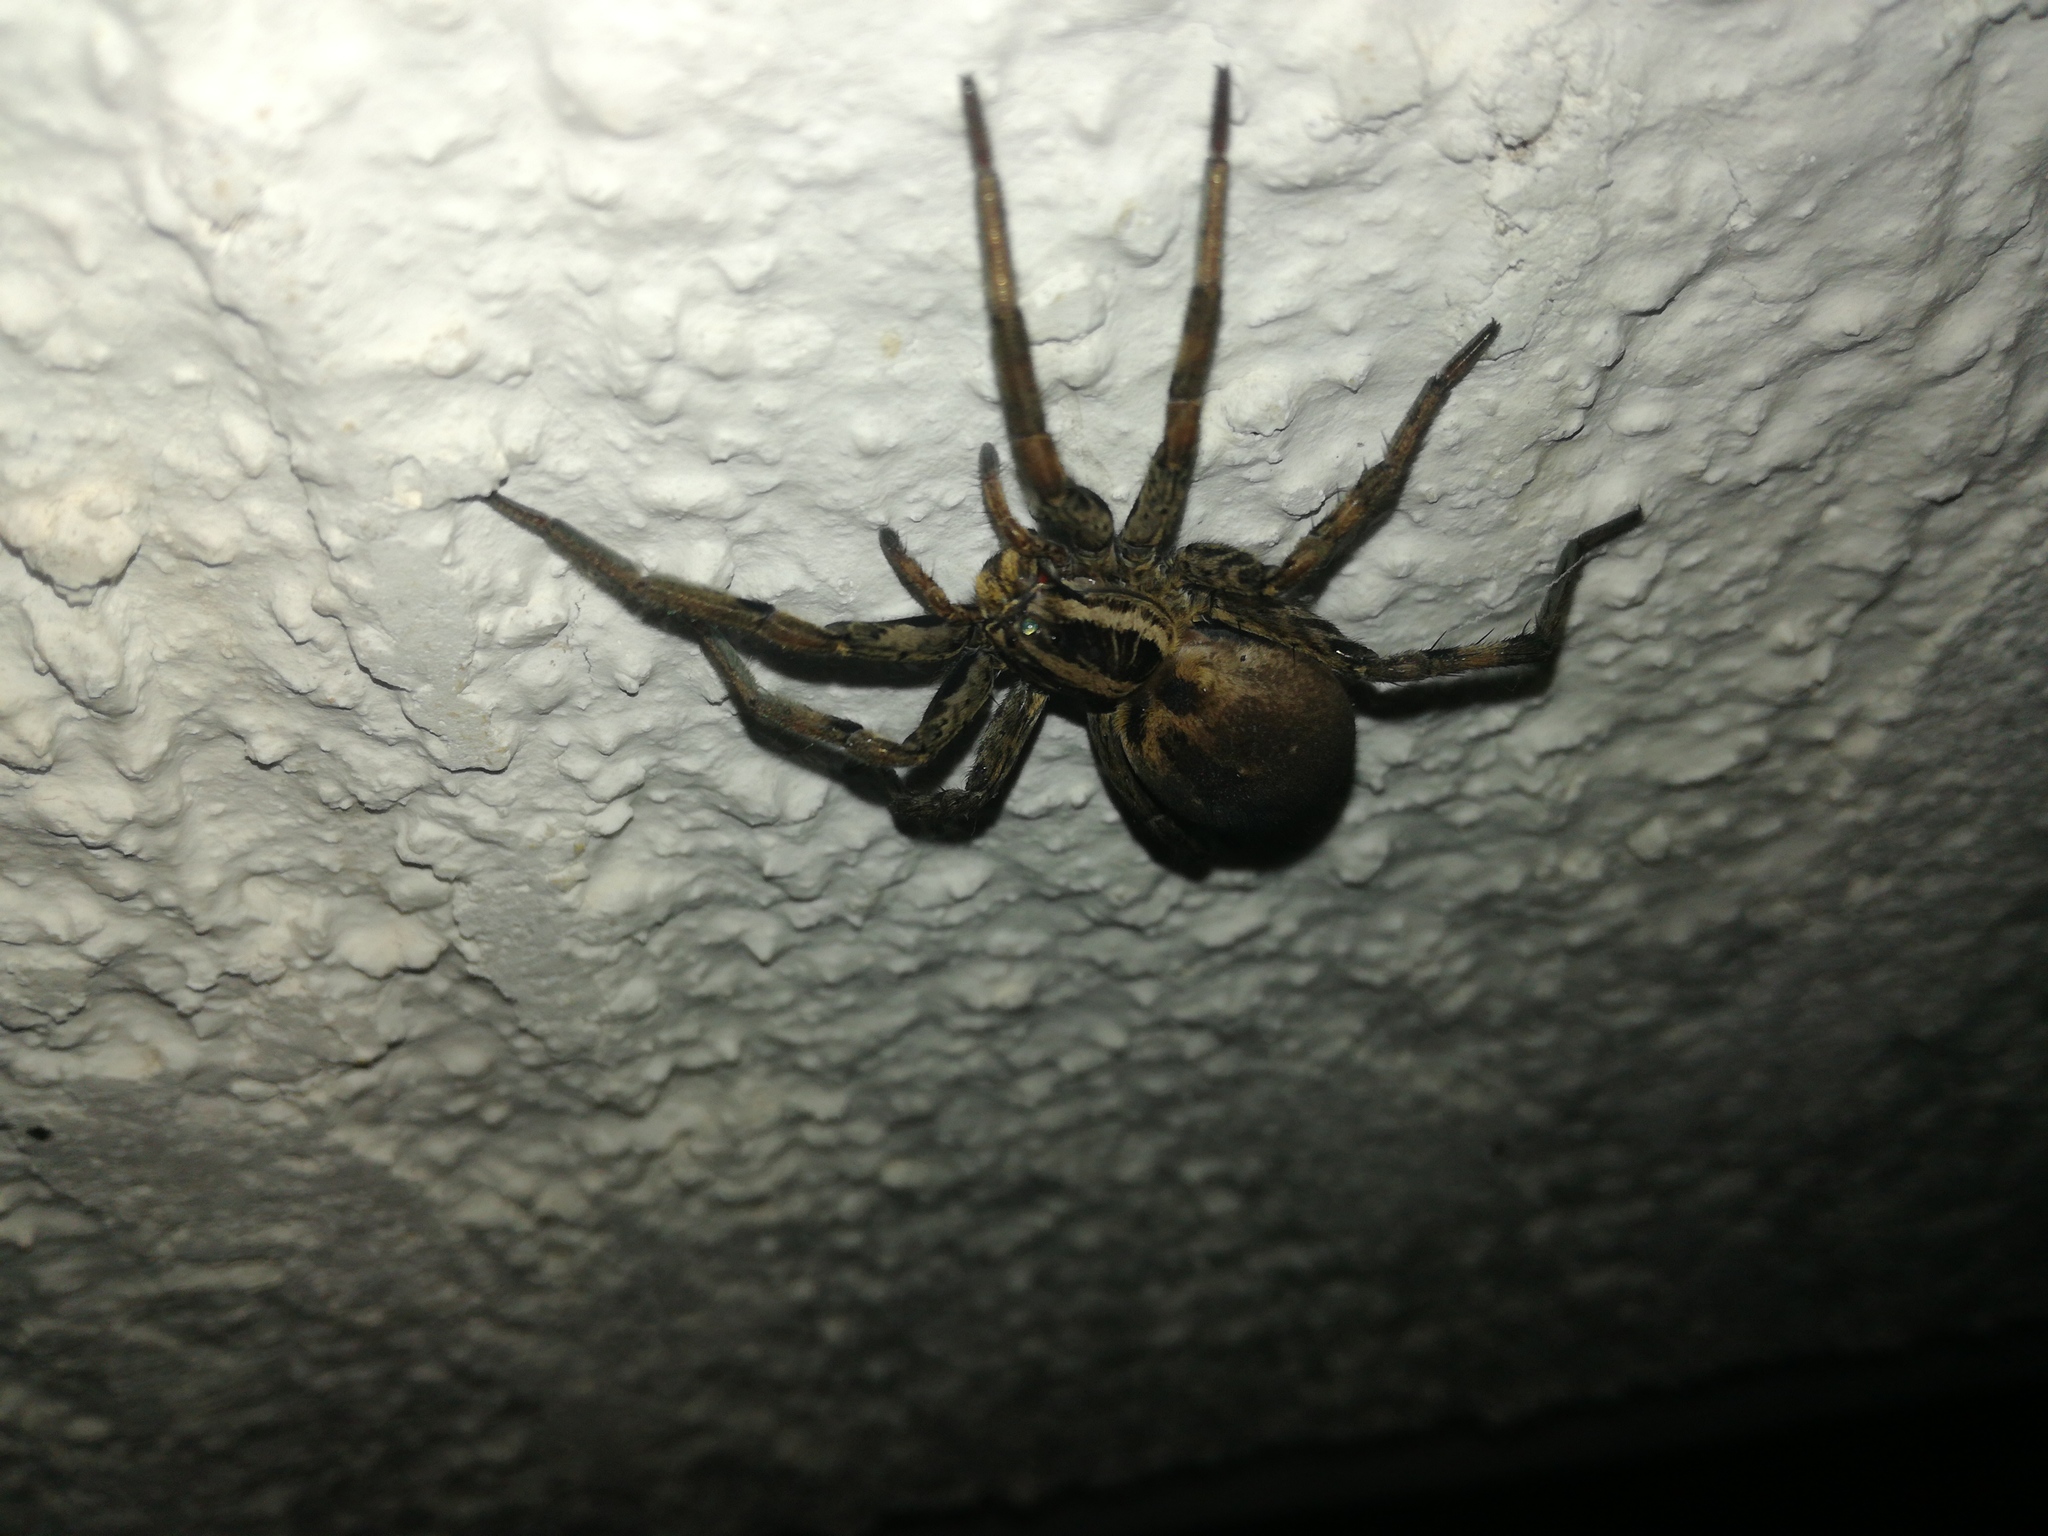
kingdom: Animalia
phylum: Arthropoda
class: Arachnida
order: Araneae
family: Lycosidae
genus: Hogna
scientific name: Hogna radiata
